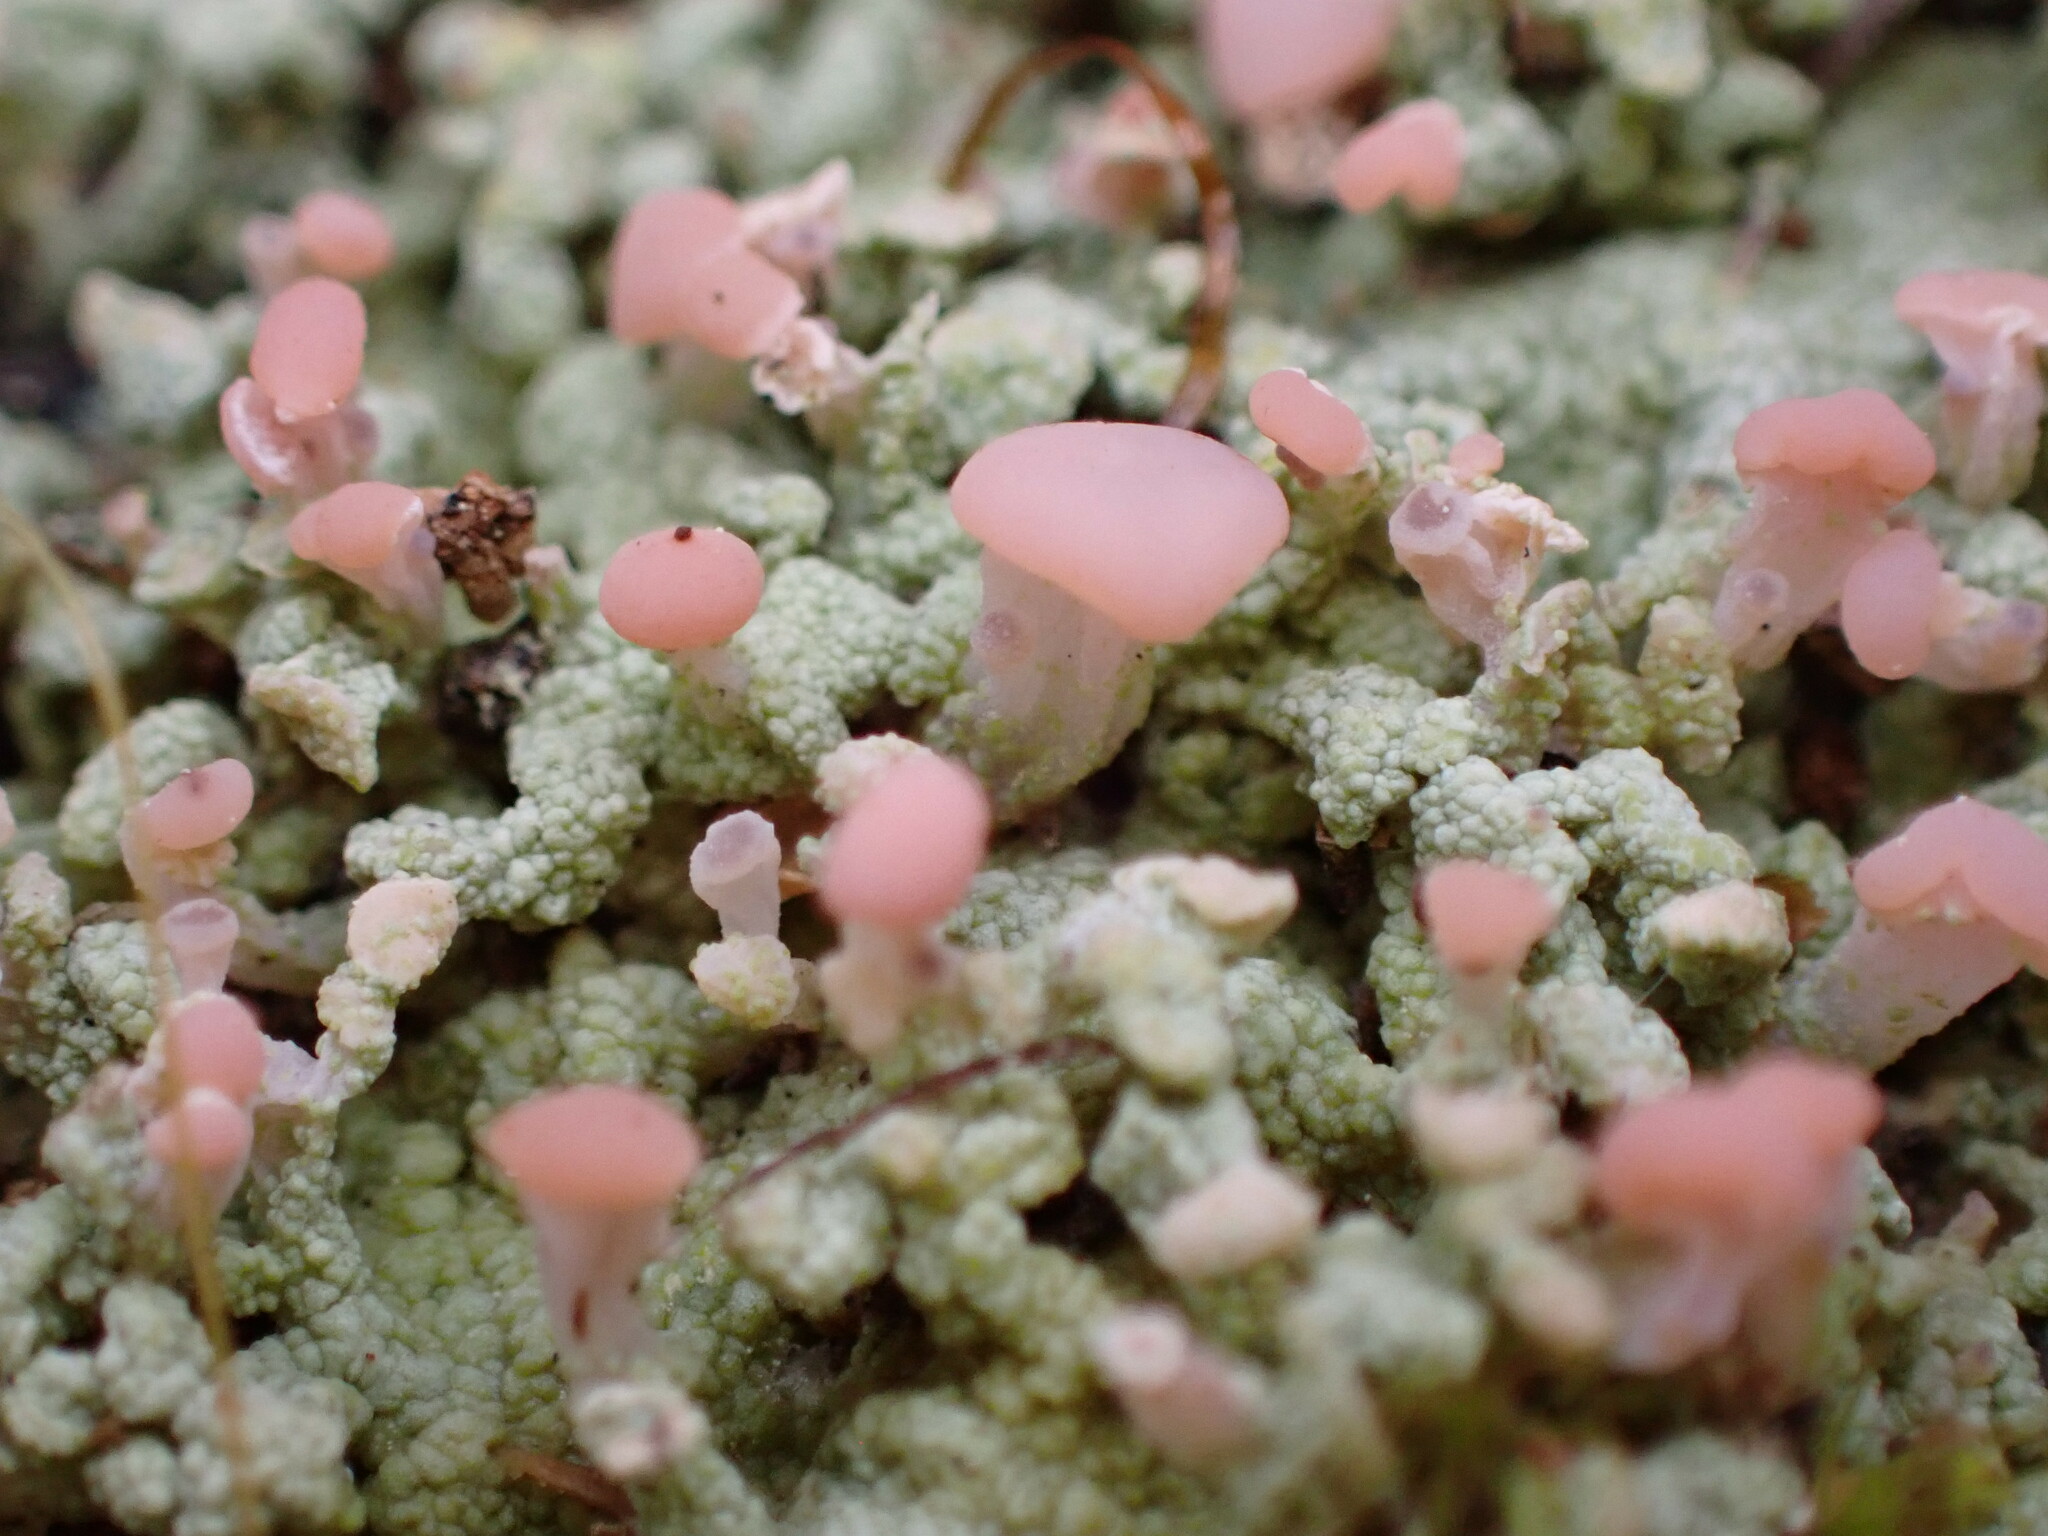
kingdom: Fungi
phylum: Ascomycota
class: Lecanoromycetes
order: Baeomycetales
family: Baeomycetaceae
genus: Baeomyces
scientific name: Baeomyces heteromorphus
